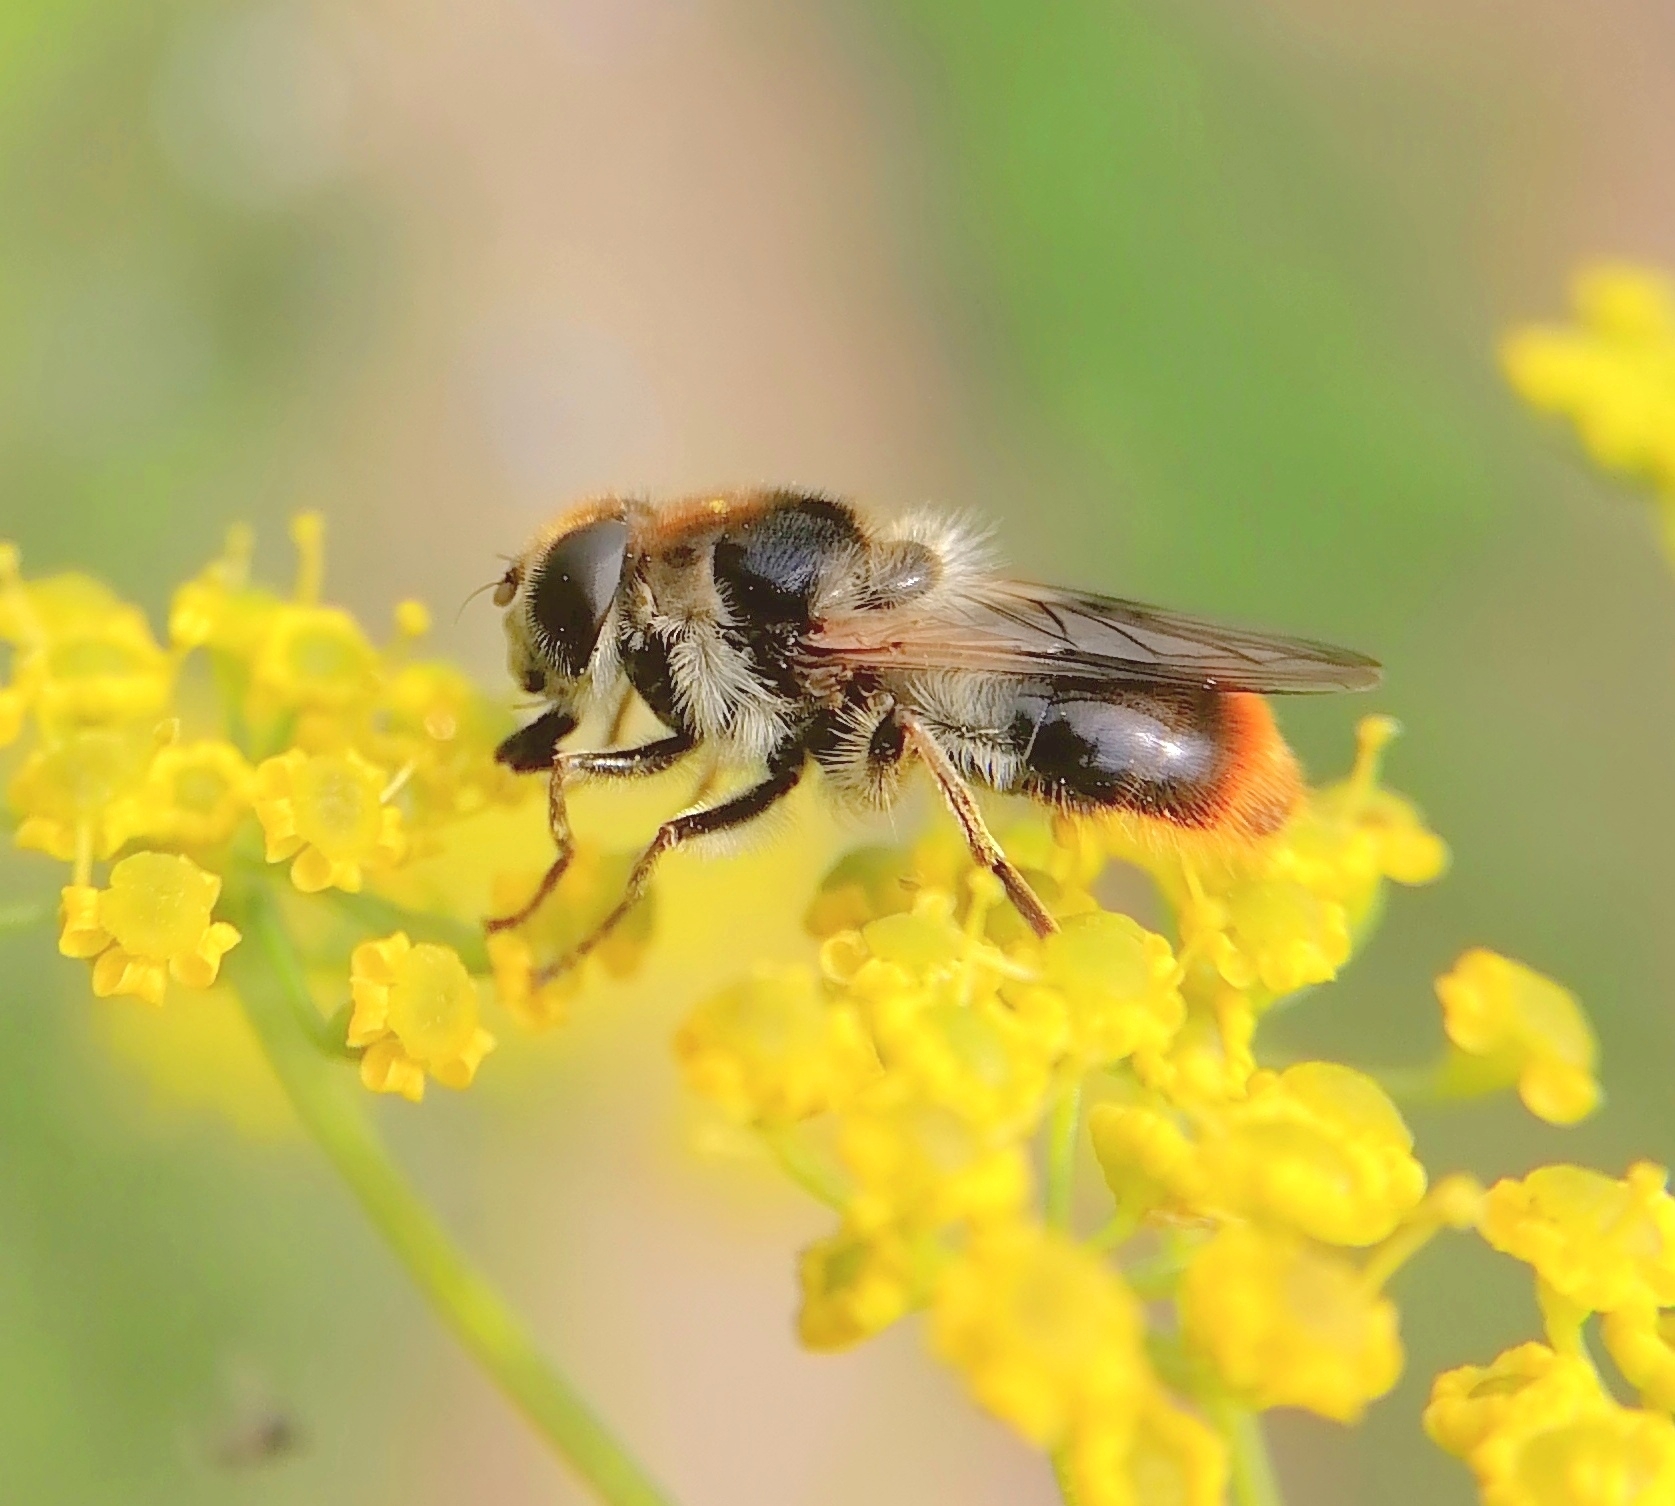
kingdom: Animalia
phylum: Arthropoda
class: Insecta
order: Diptera
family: Syrphidae
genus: Cheilosia
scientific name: Cheilosia illustrata
